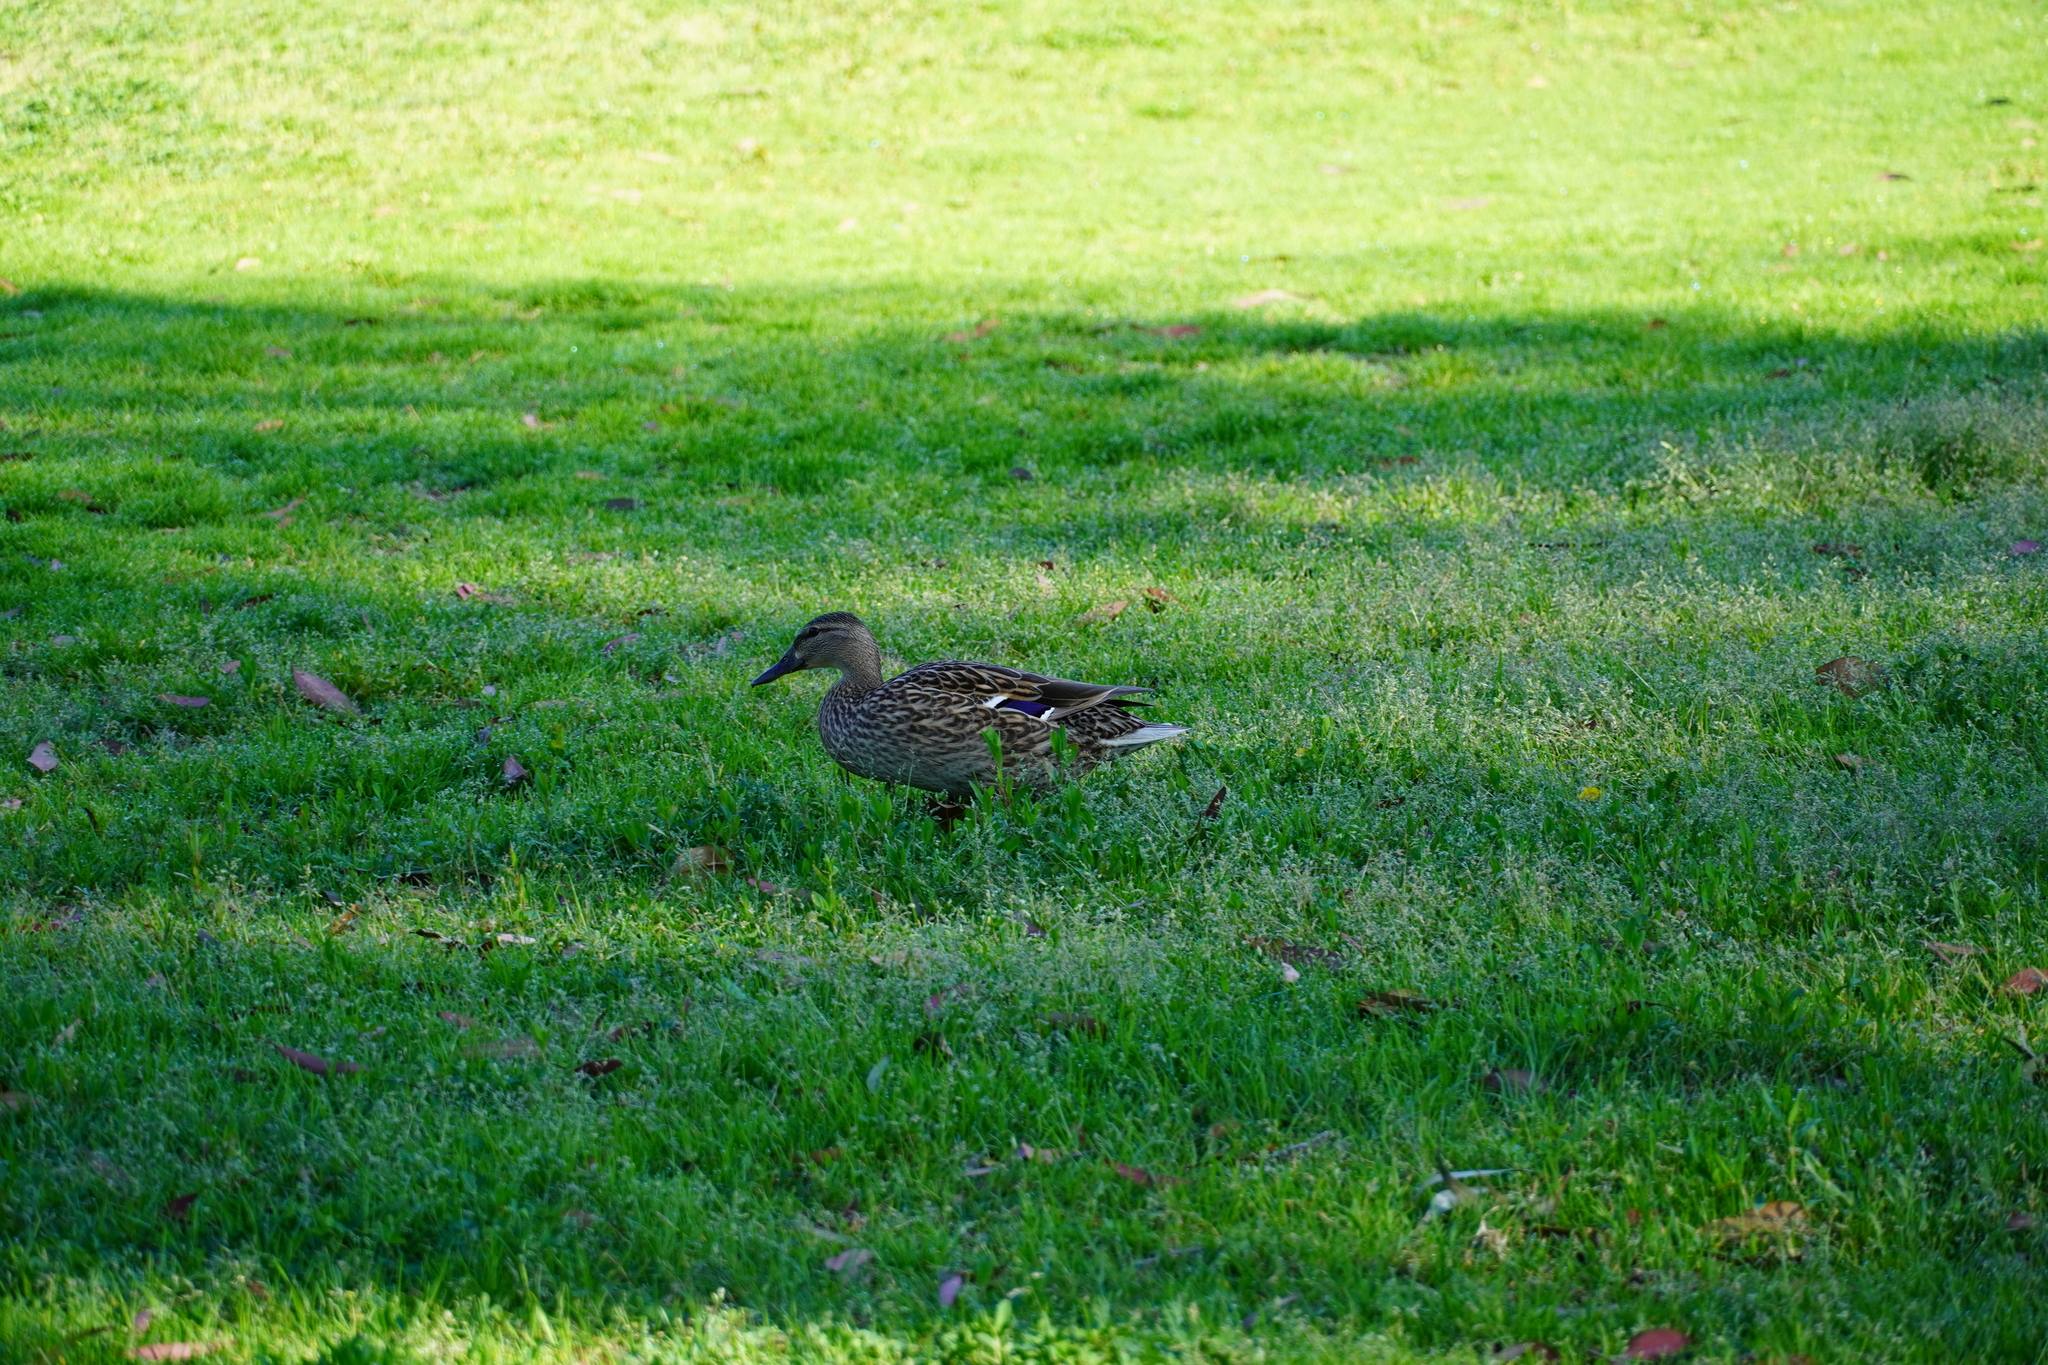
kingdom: Animalia
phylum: Chordata
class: Aves
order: Anseriformes
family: Anatidae
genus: Anas
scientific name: Anas platyrhynchos
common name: Mallard
